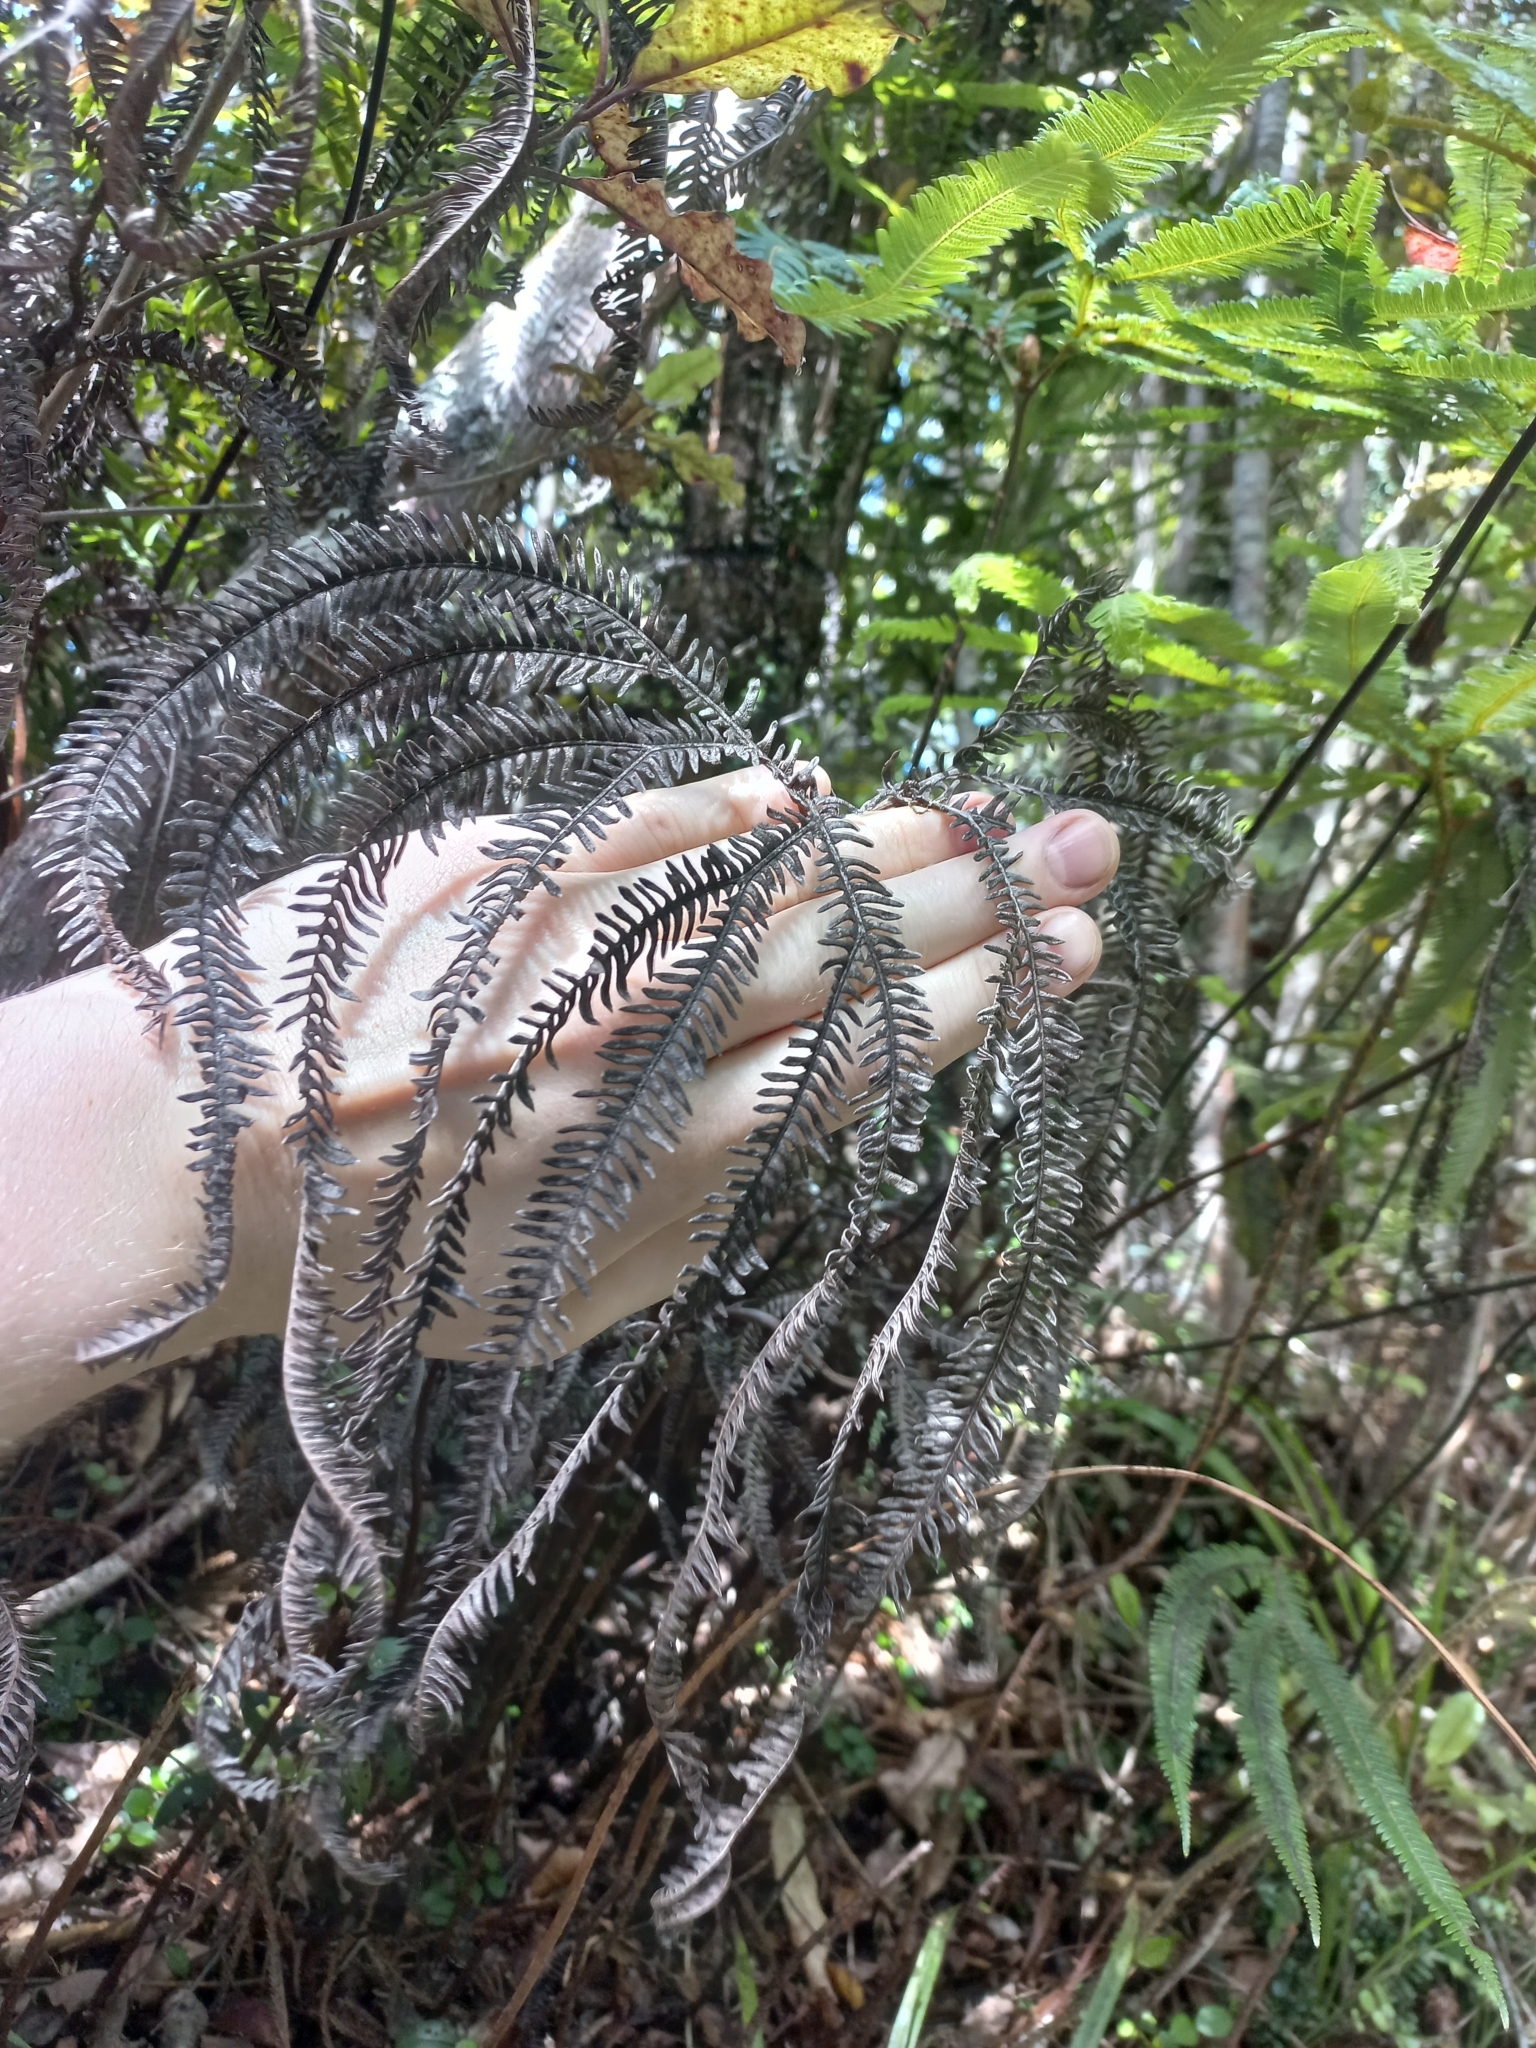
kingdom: Plantae
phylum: Tracheophyta
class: Polypodiopsida
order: Gleicheniales
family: Gleicheniaceae
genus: Sticherus
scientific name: Sticherus cunninghamii
